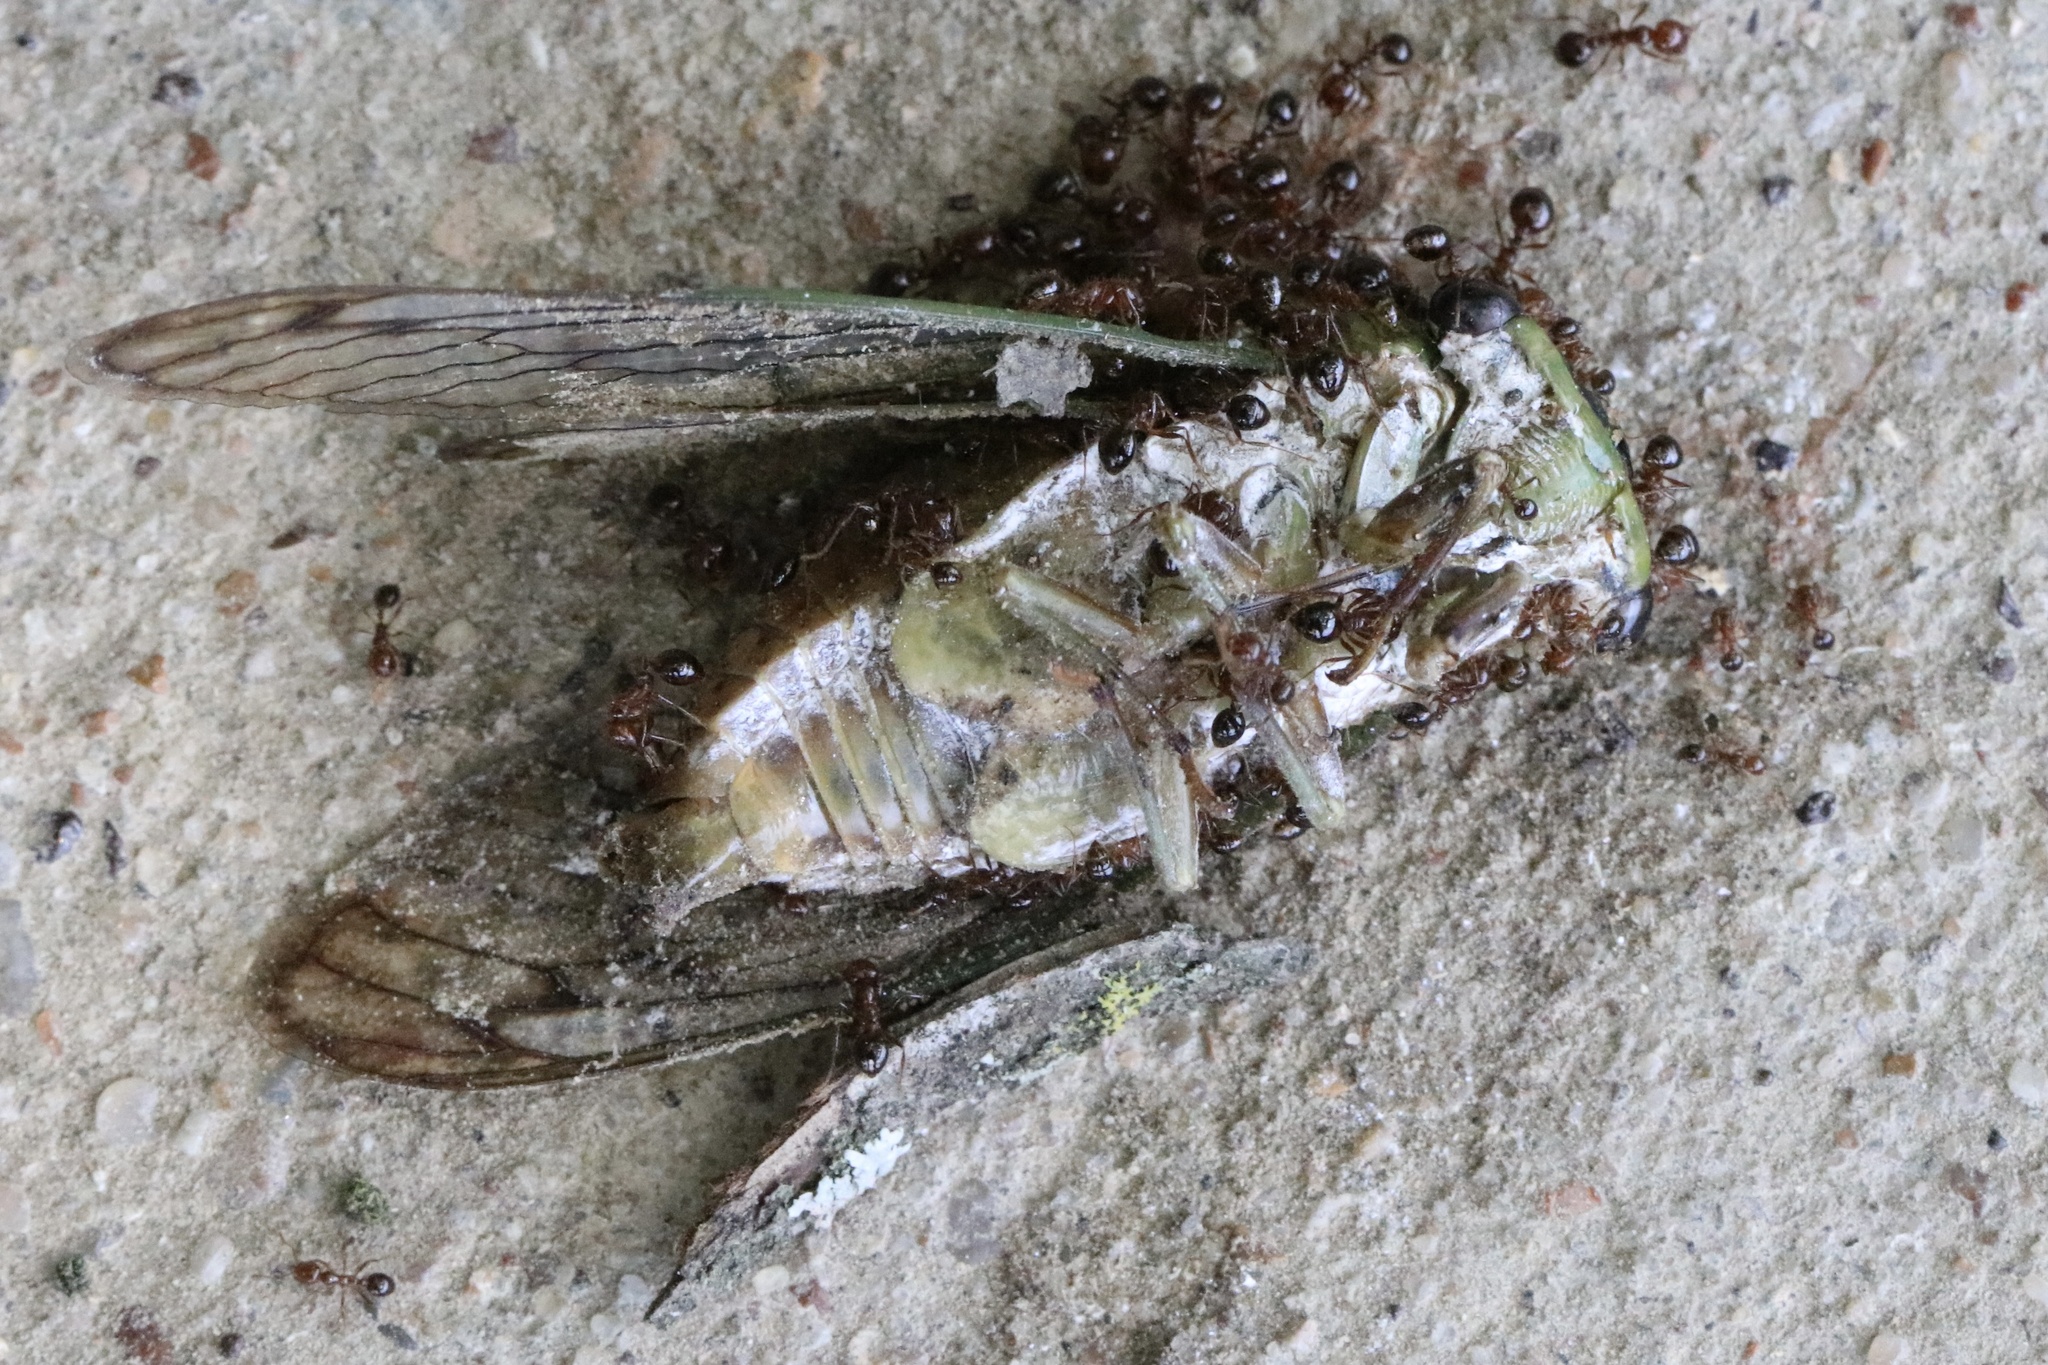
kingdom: Animalia
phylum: Arthropoda
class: Insecta
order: Hemiptera
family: Cicadidae
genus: Neotibicen
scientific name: Neotibicen superbus
